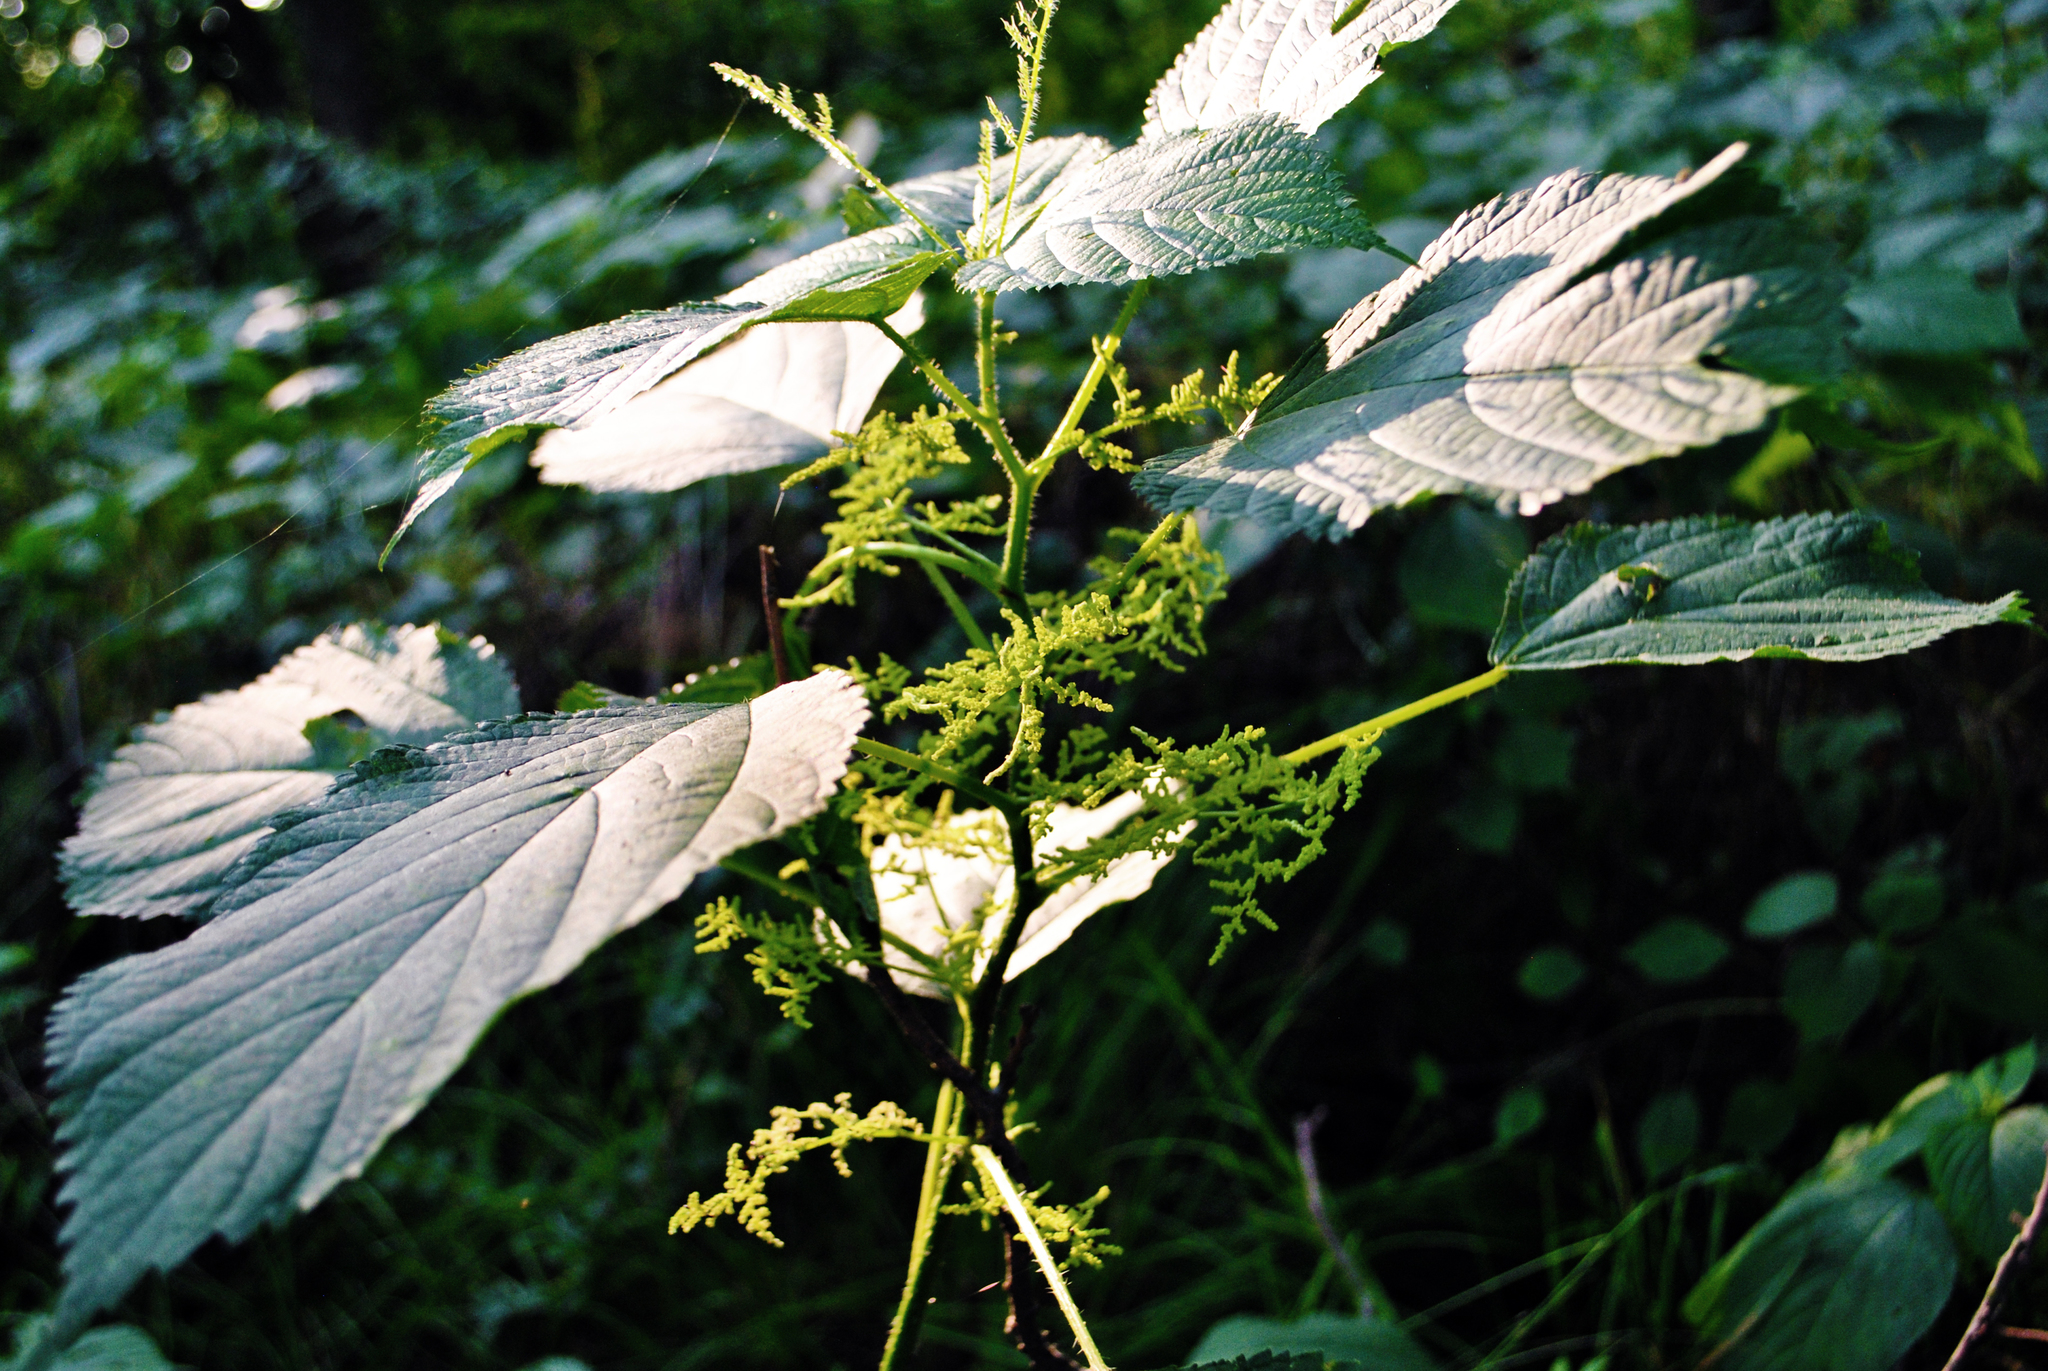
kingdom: Plantae
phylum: Tracheophyta
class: Magnoliopsida
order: Rosales
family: Urticaceae
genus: Laportea
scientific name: Laportea canadensis
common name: Canada nettle
